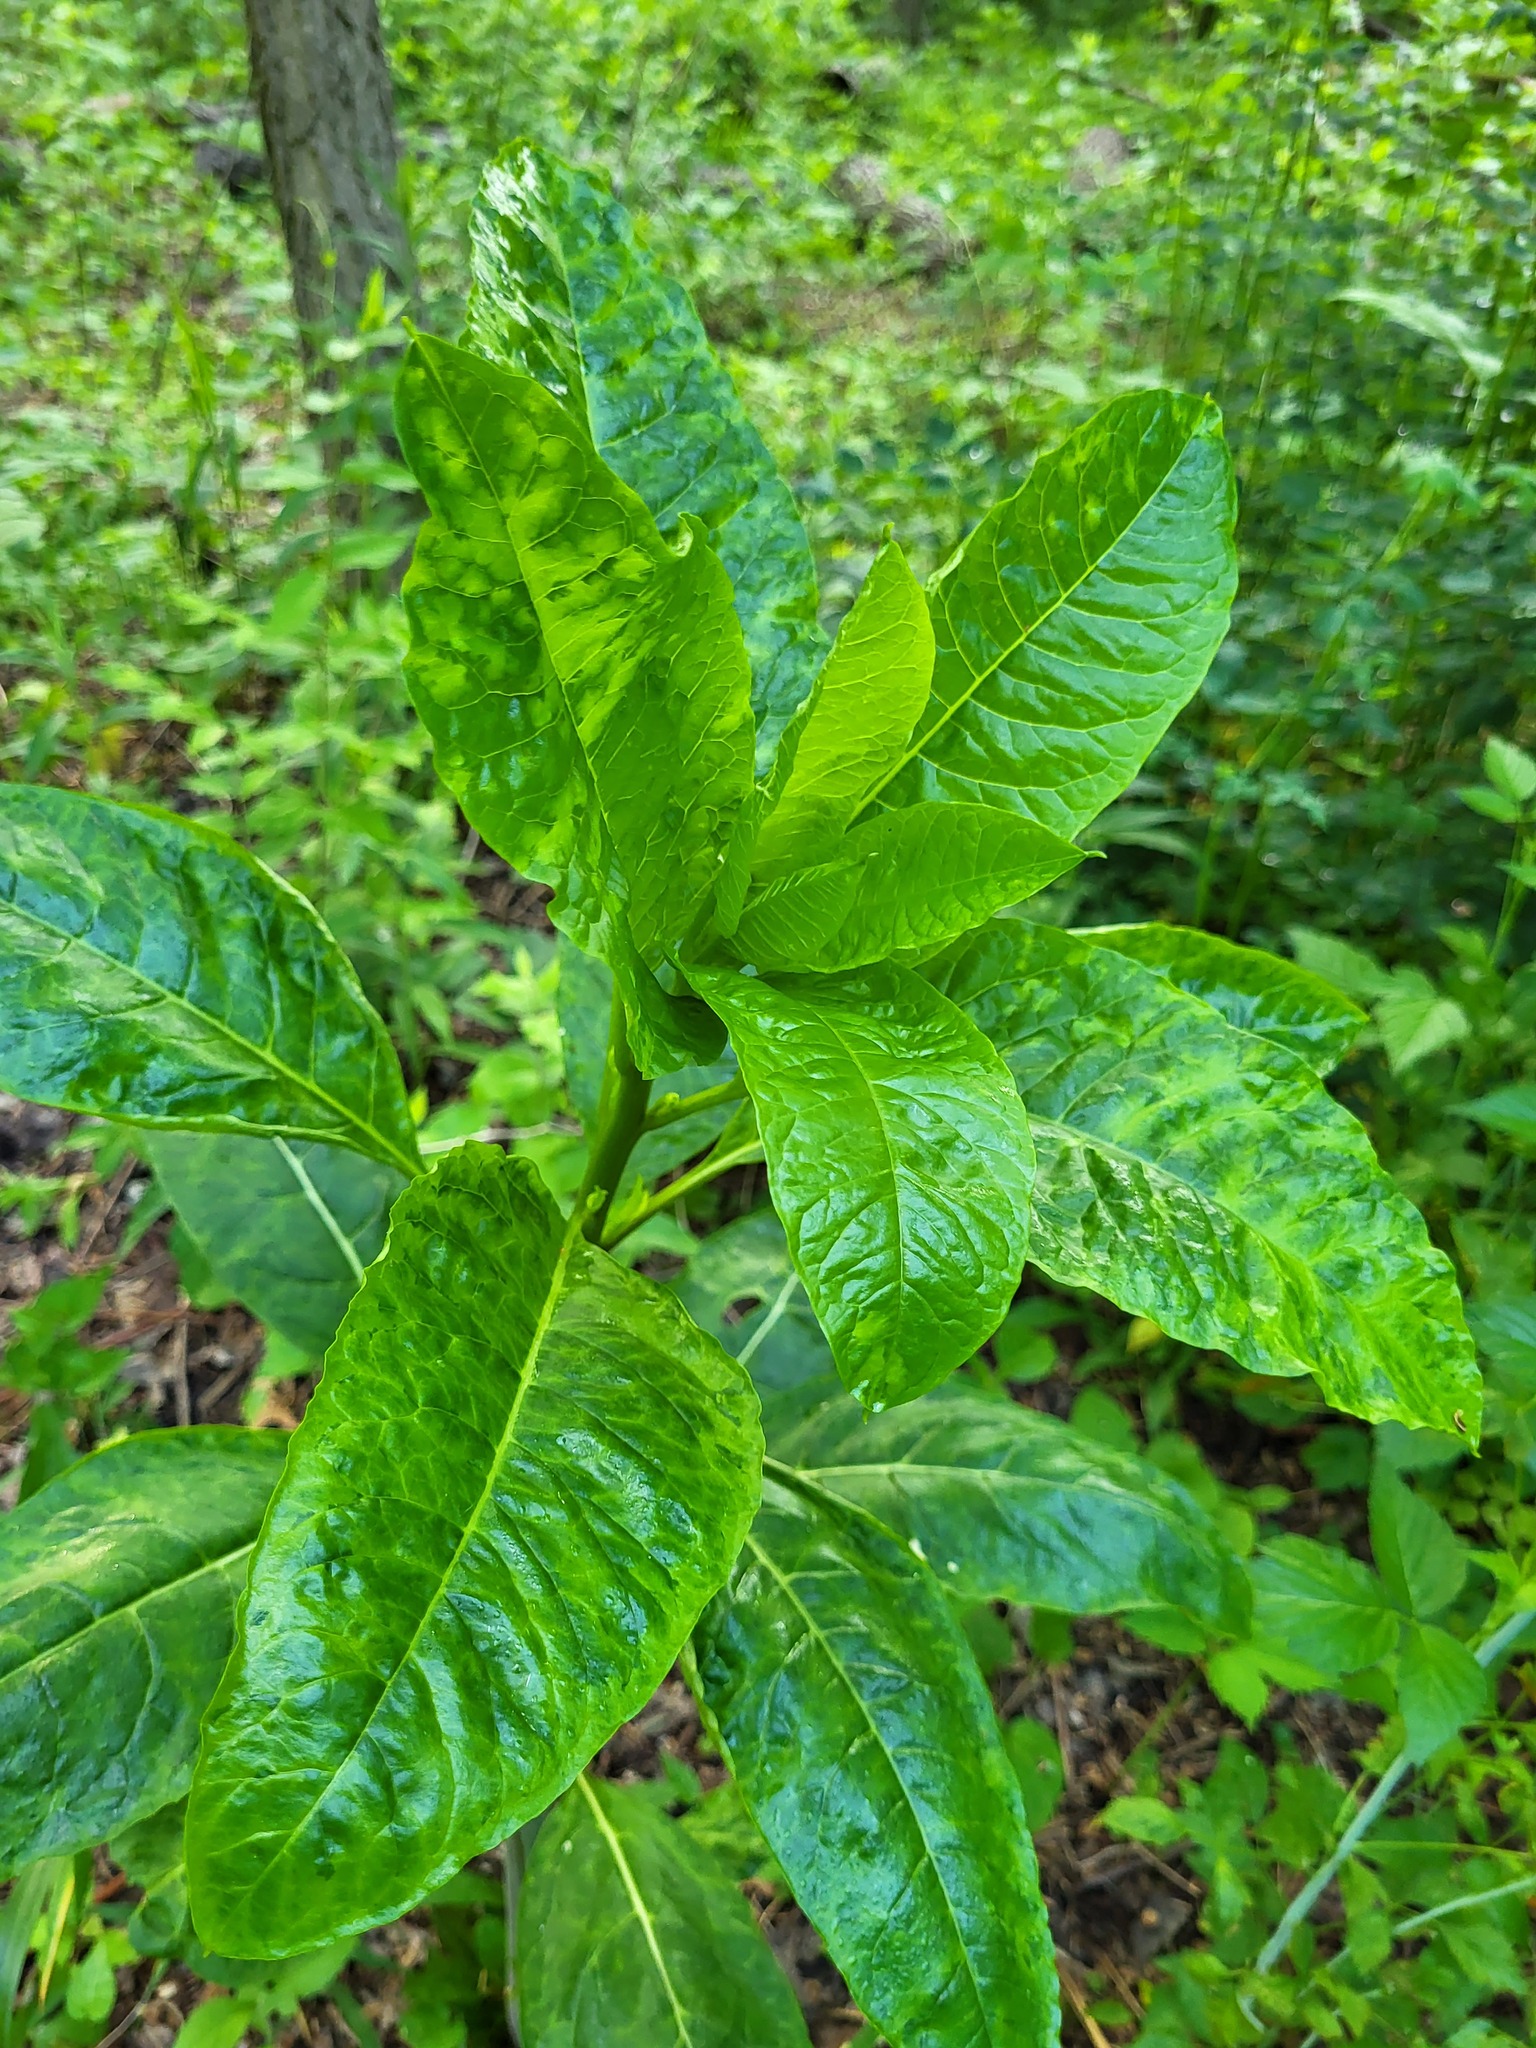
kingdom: Plantae
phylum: Tracheophyta
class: Magnoliopsida
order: Caryophyllales
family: Phytolaccaceae
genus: Phytolacca
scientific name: Phytolacca americana
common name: American pokeweed
